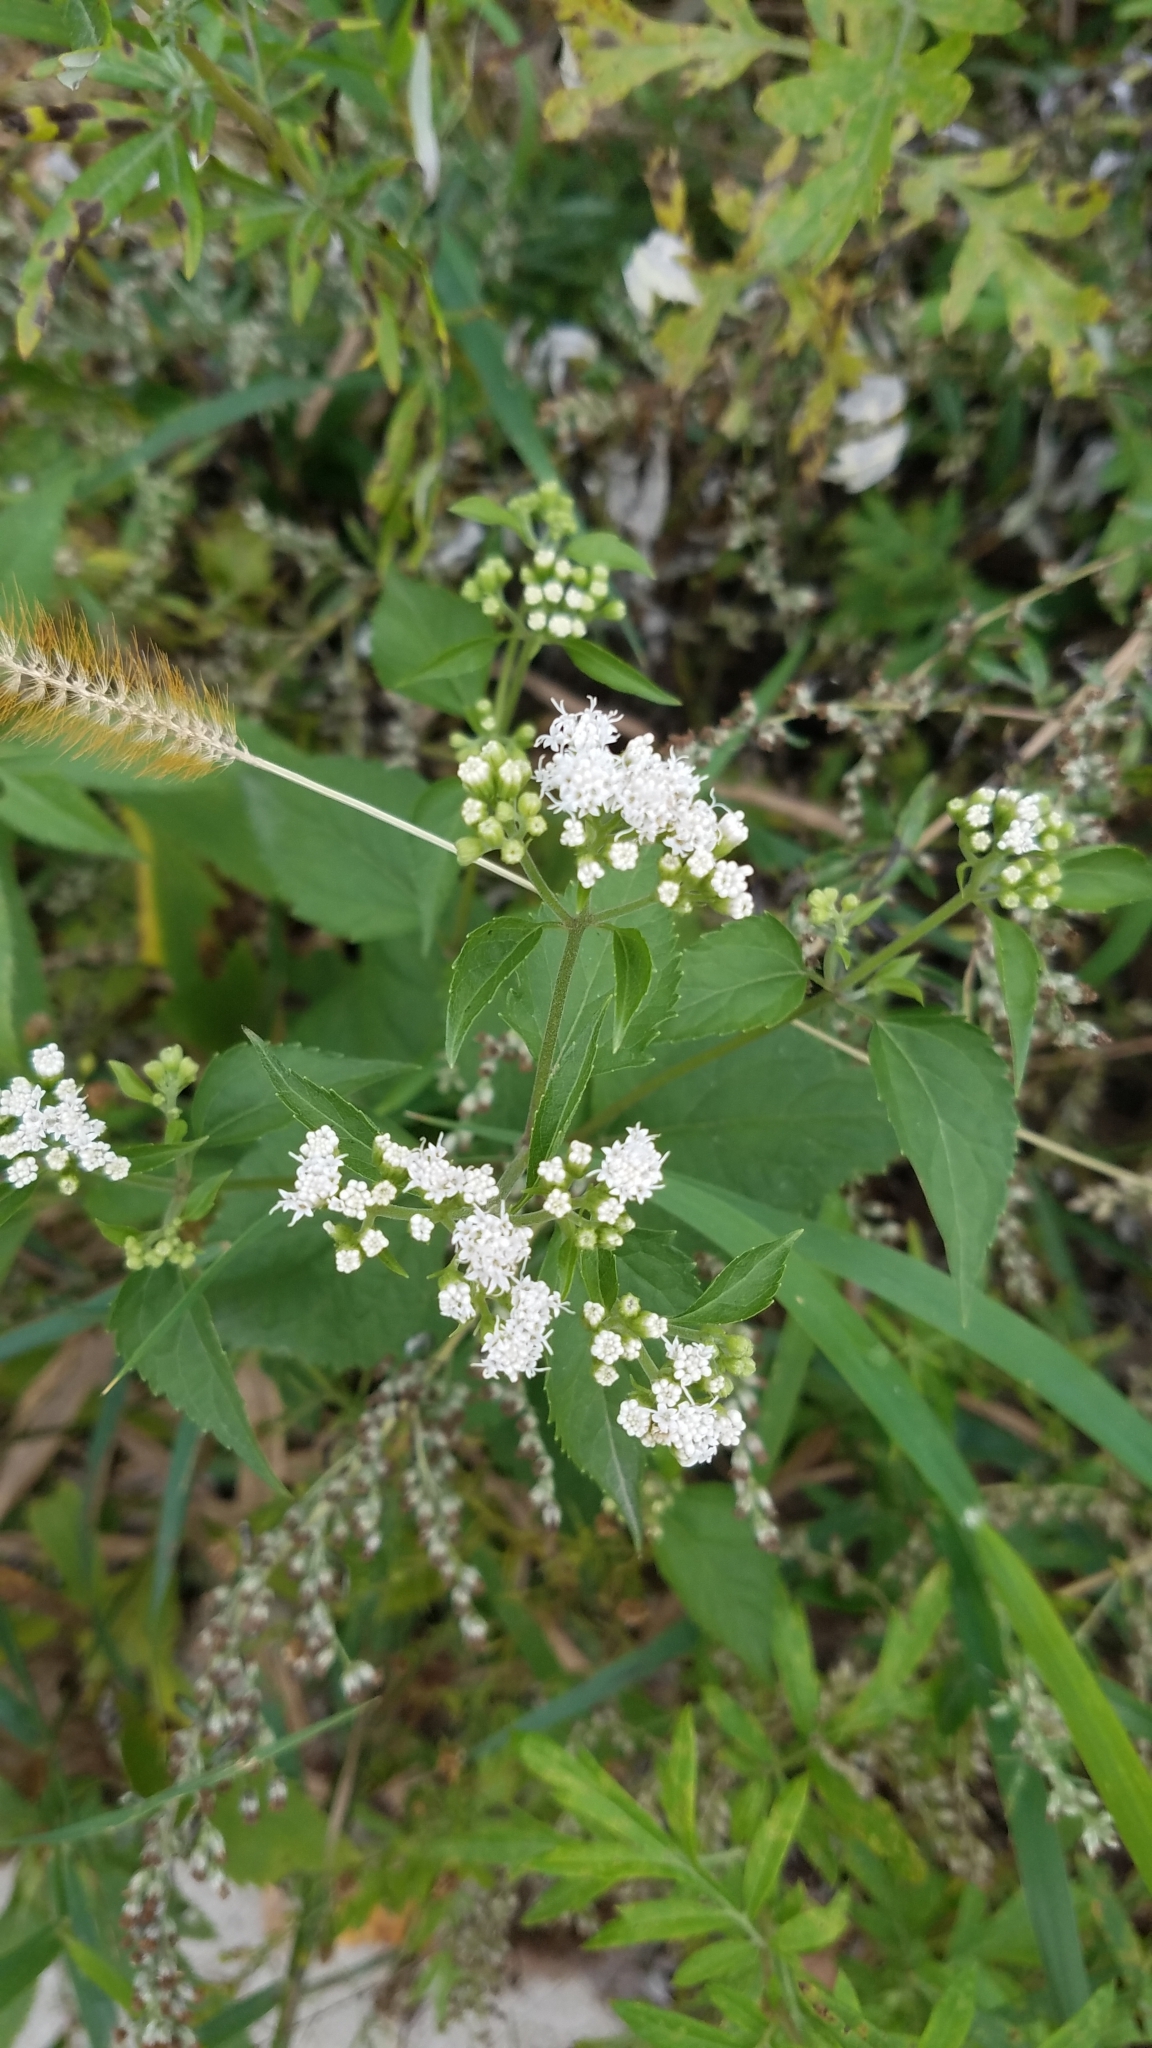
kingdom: Plantae
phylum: Tracheophyta
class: Magnoliopsida
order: Asterales
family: Asteraceae
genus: Ageratina
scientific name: Ageratina altissima
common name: White snakeroot
